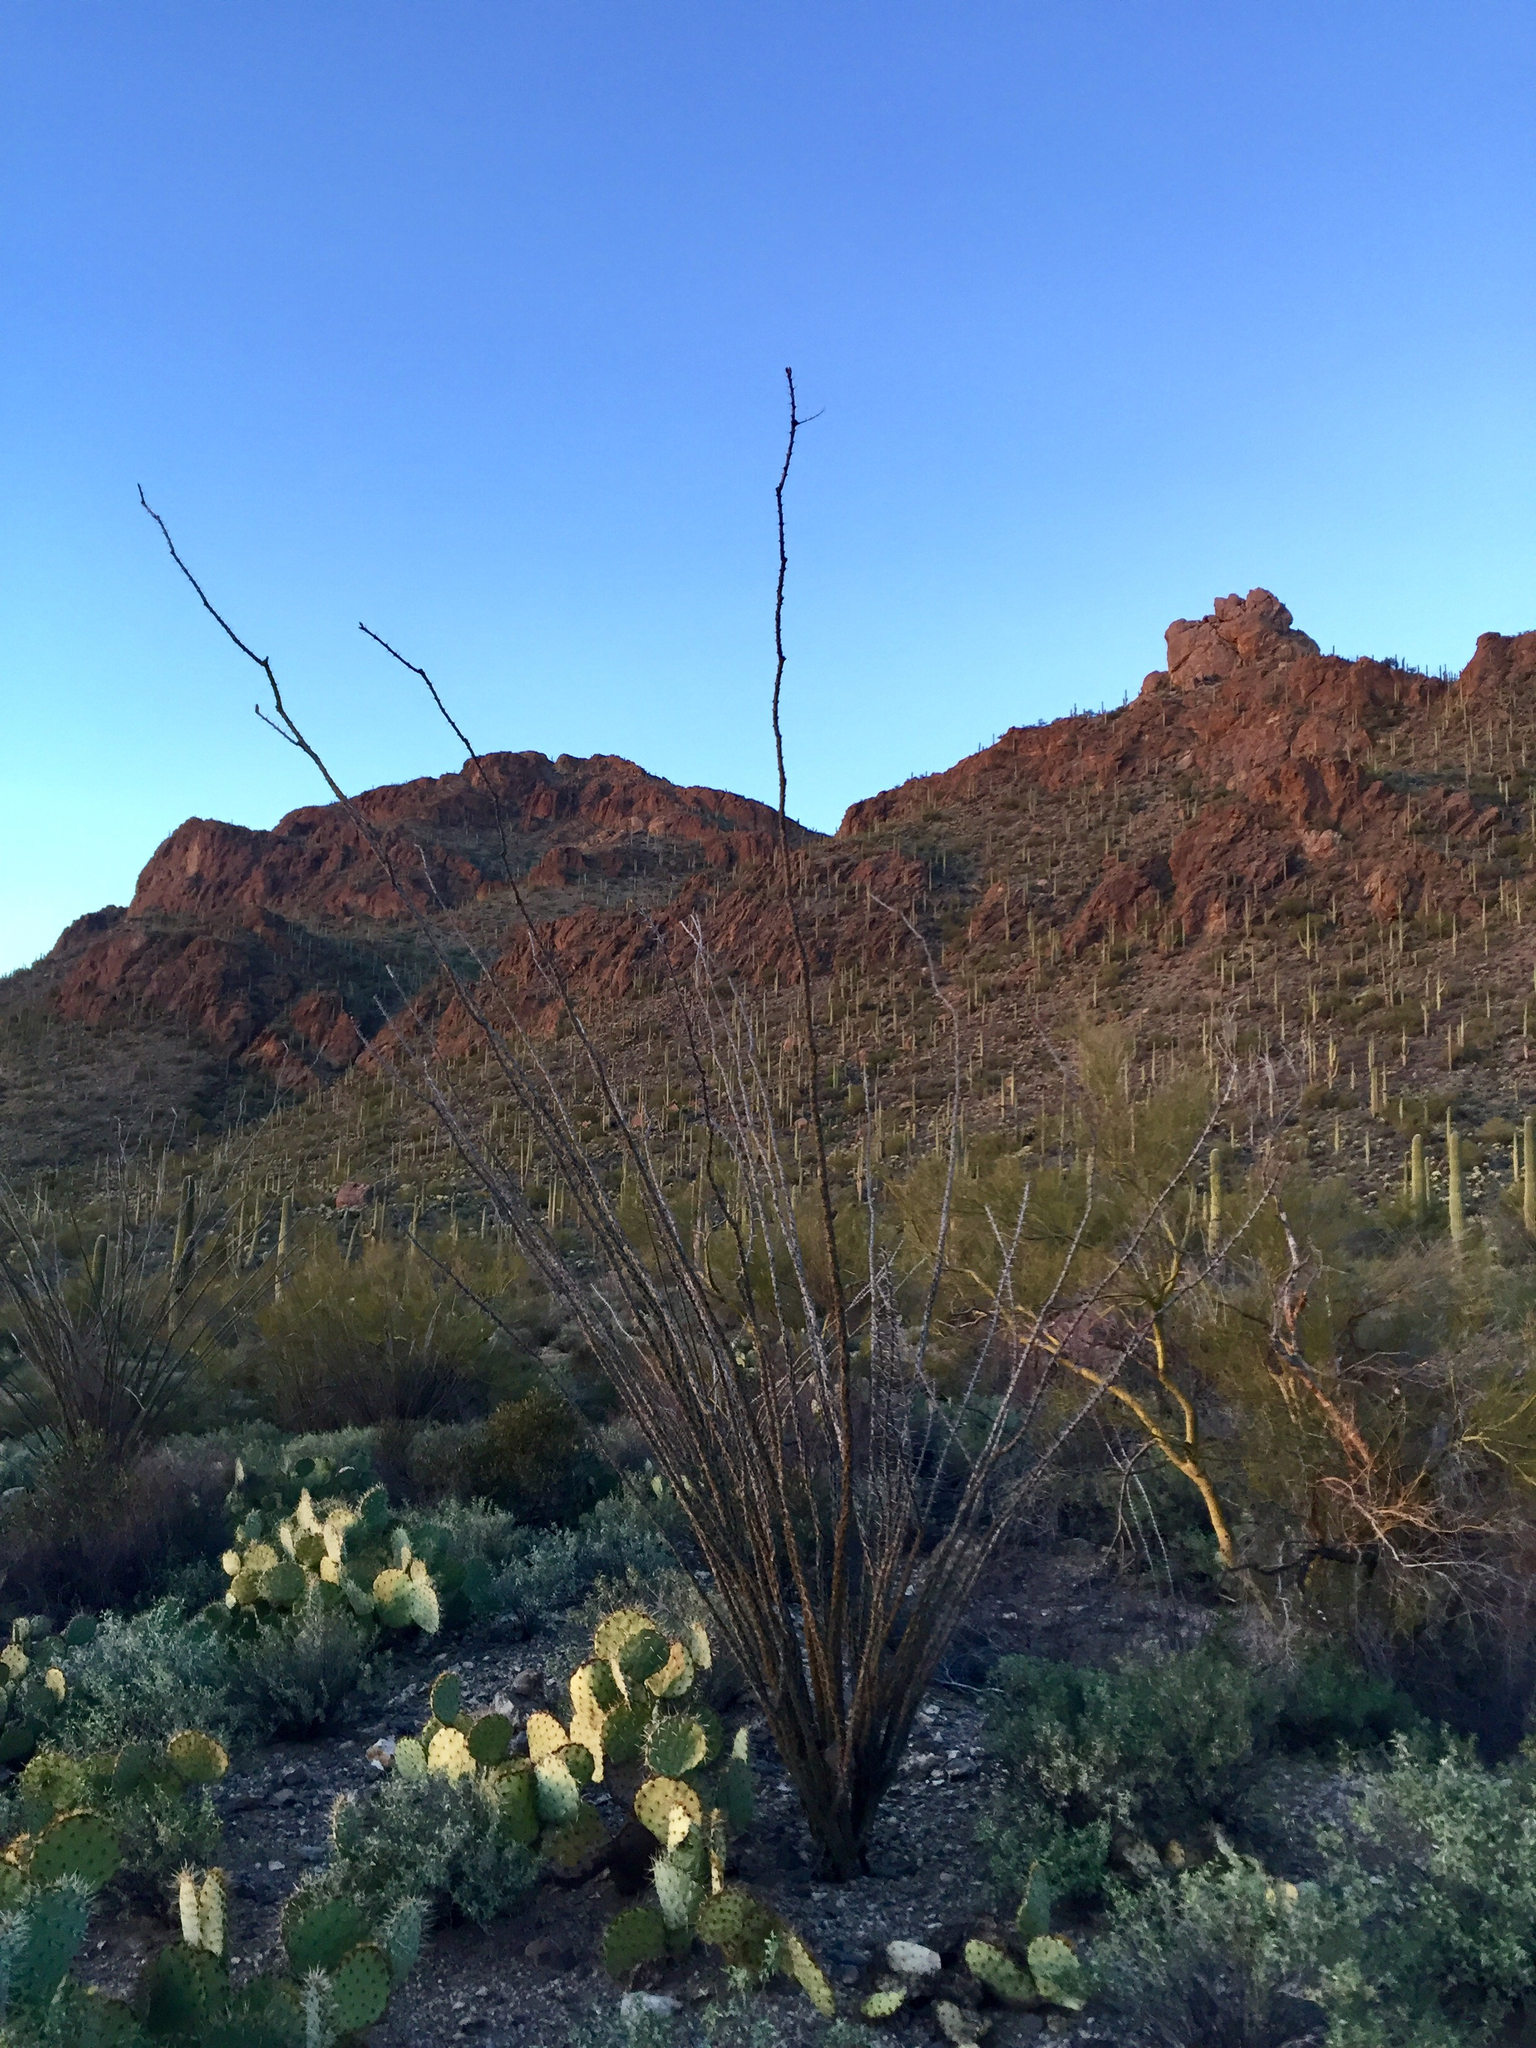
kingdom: Plantae
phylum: Tracheophyta
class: Magnoliopsida
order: Ericales
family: Fouquieriaceae
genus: Fouquieria
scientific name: Fouquieria splendens
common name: Vine-cactus
